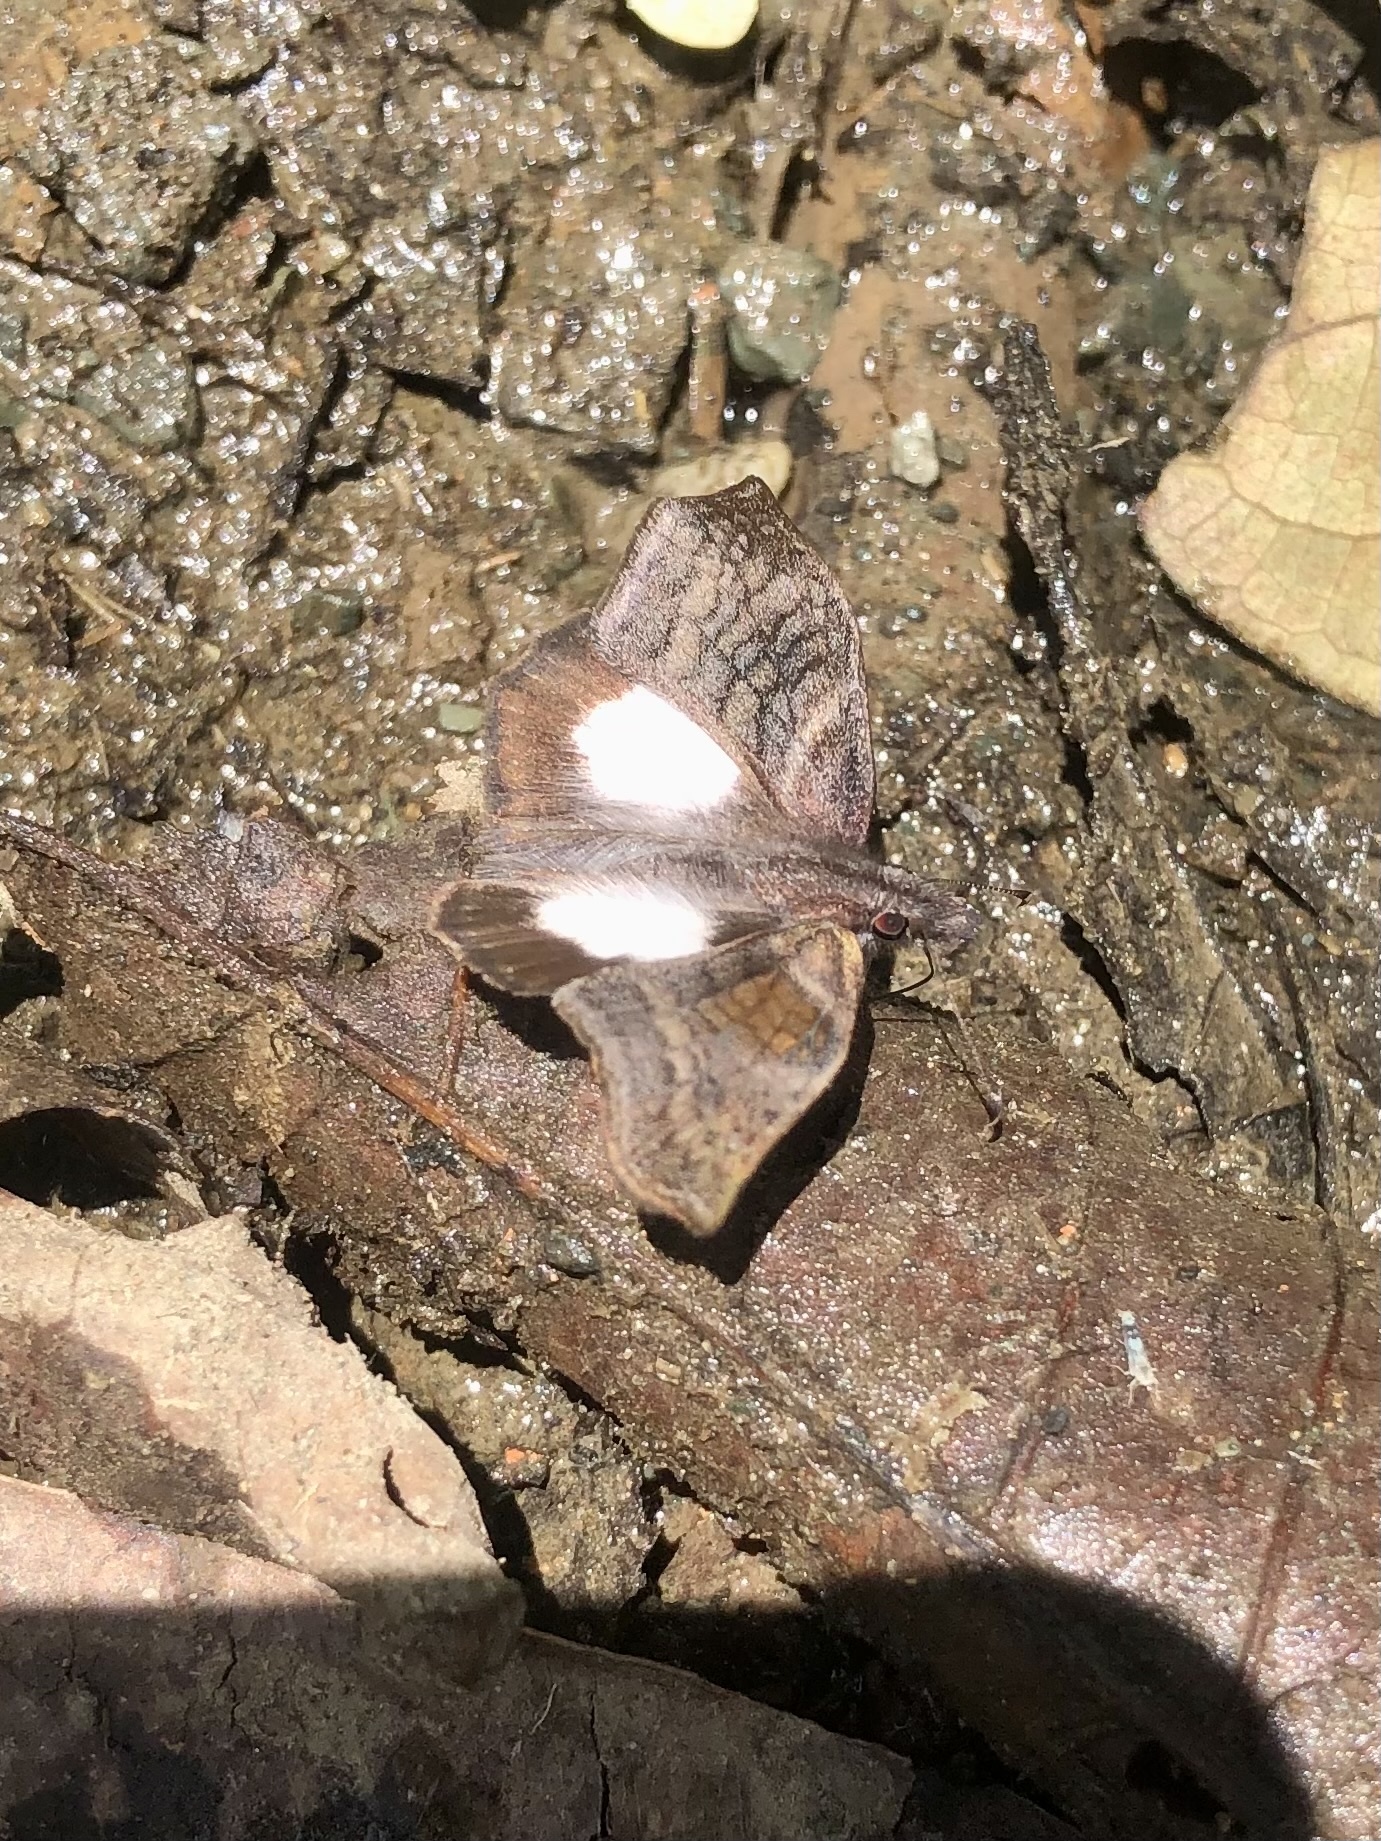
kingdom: Animalia
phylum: Arthropoda
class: Insecta
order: Lepidoptera
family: Hesperiidae
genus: Theagenes
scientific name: Theagenes albiplaga
